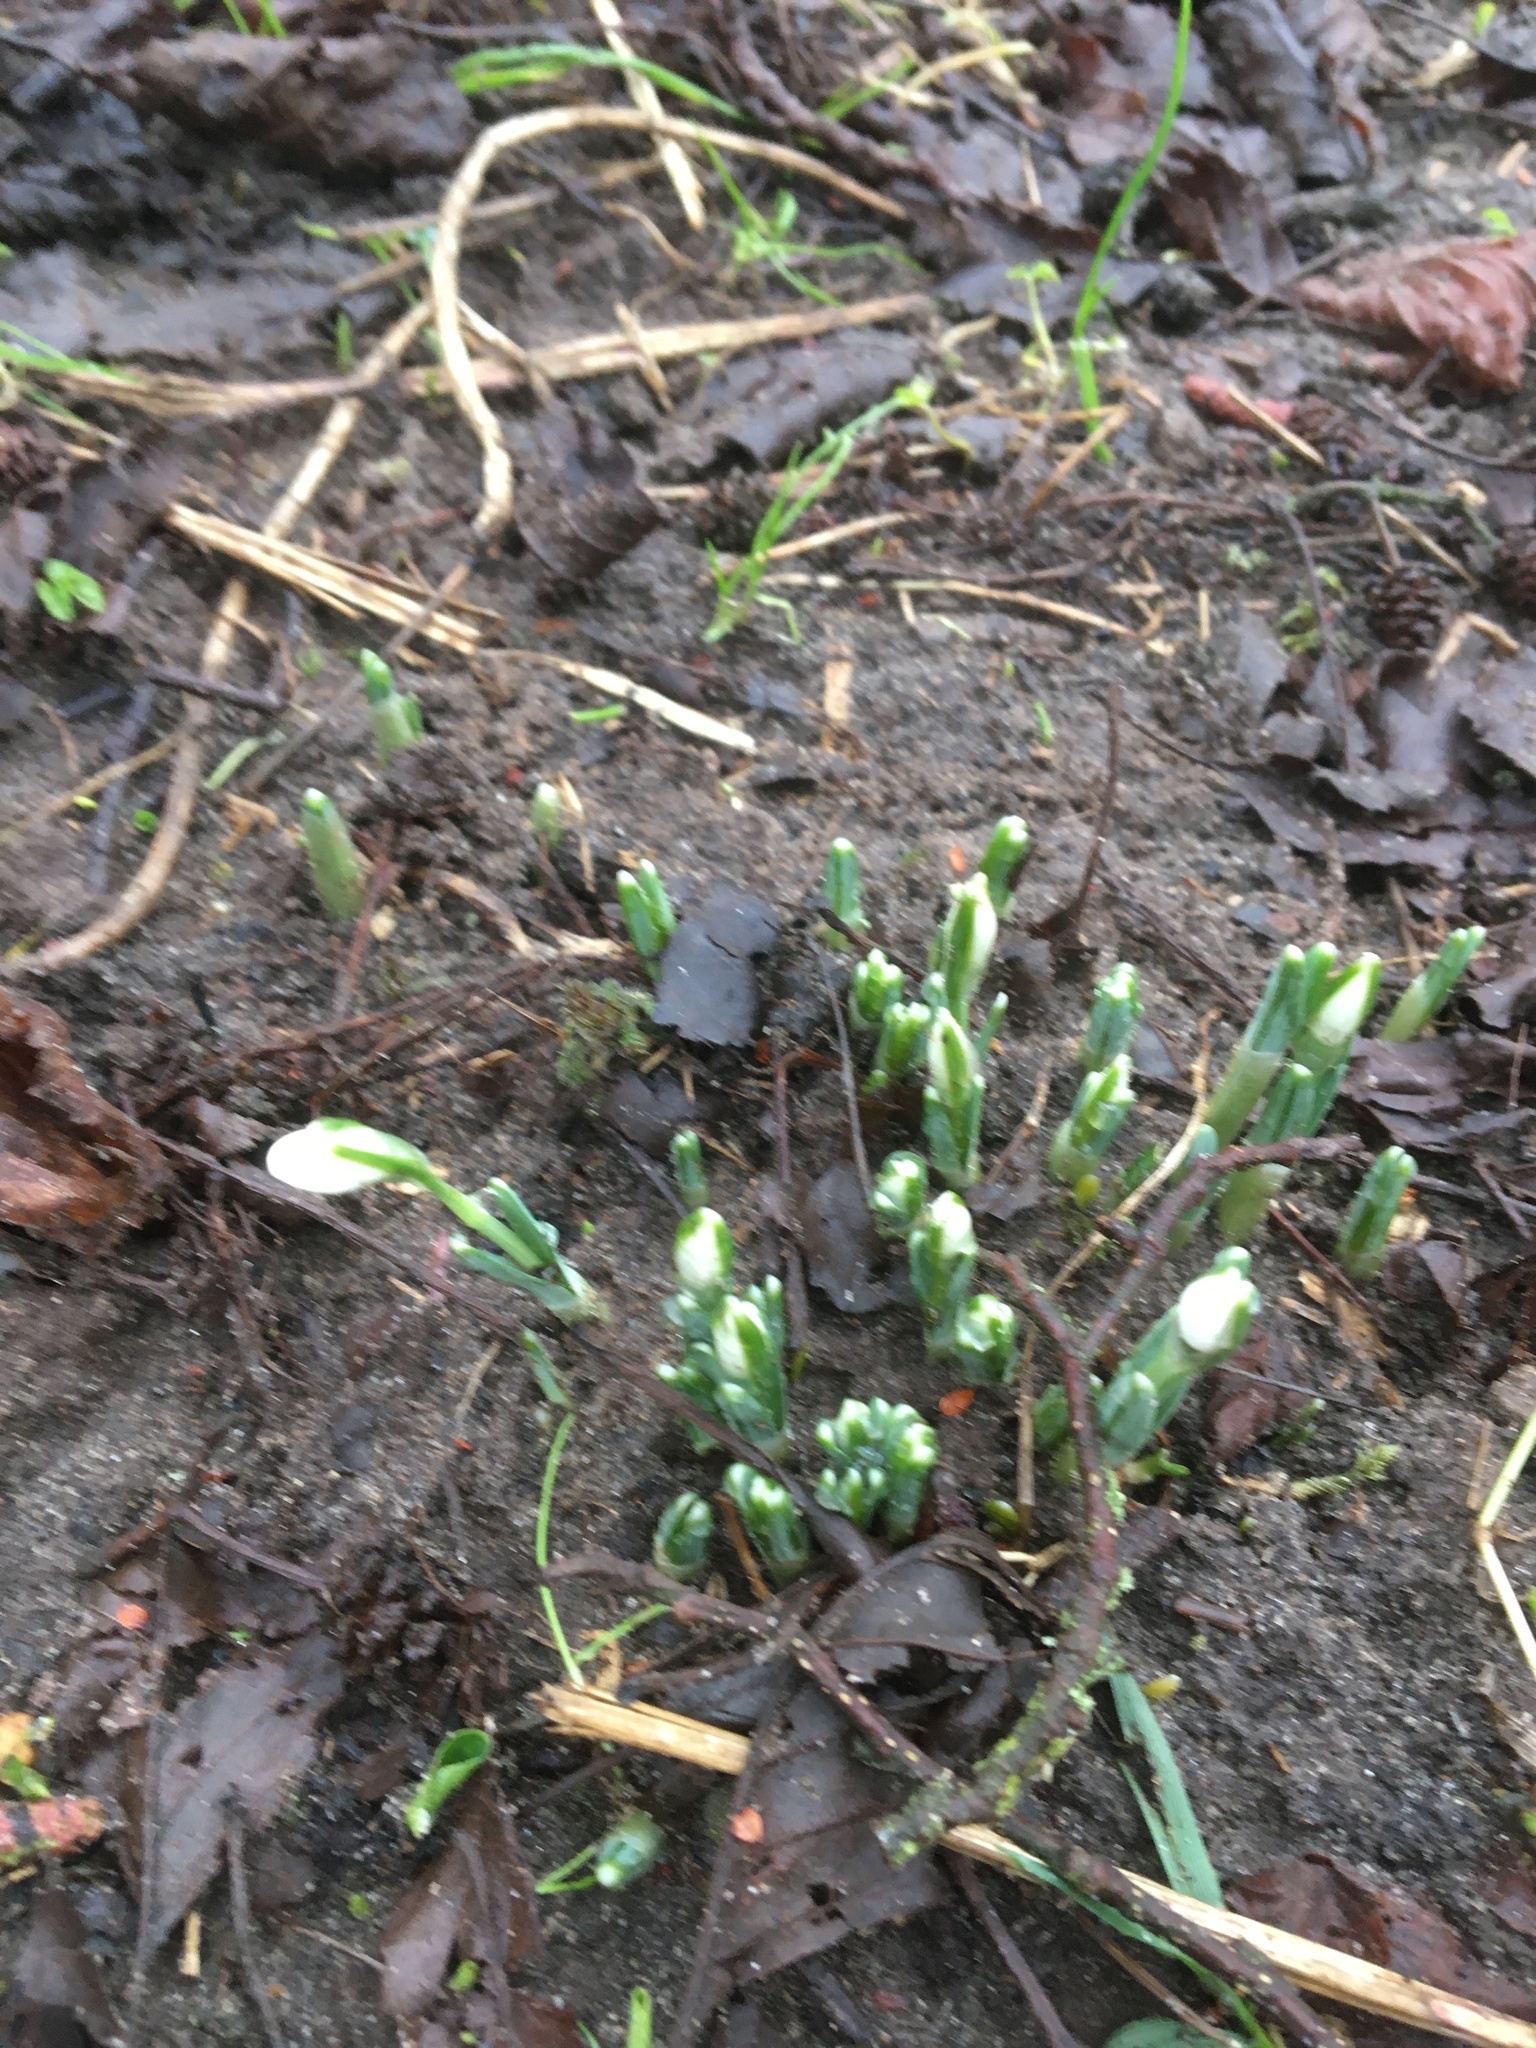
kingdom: Plantae
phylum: Tracheophyta
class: Liliopsida
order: Asparagales
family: Amaryllidaceae
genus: Galanthus
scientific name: Galanthus nivalis
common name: Snowdrop
